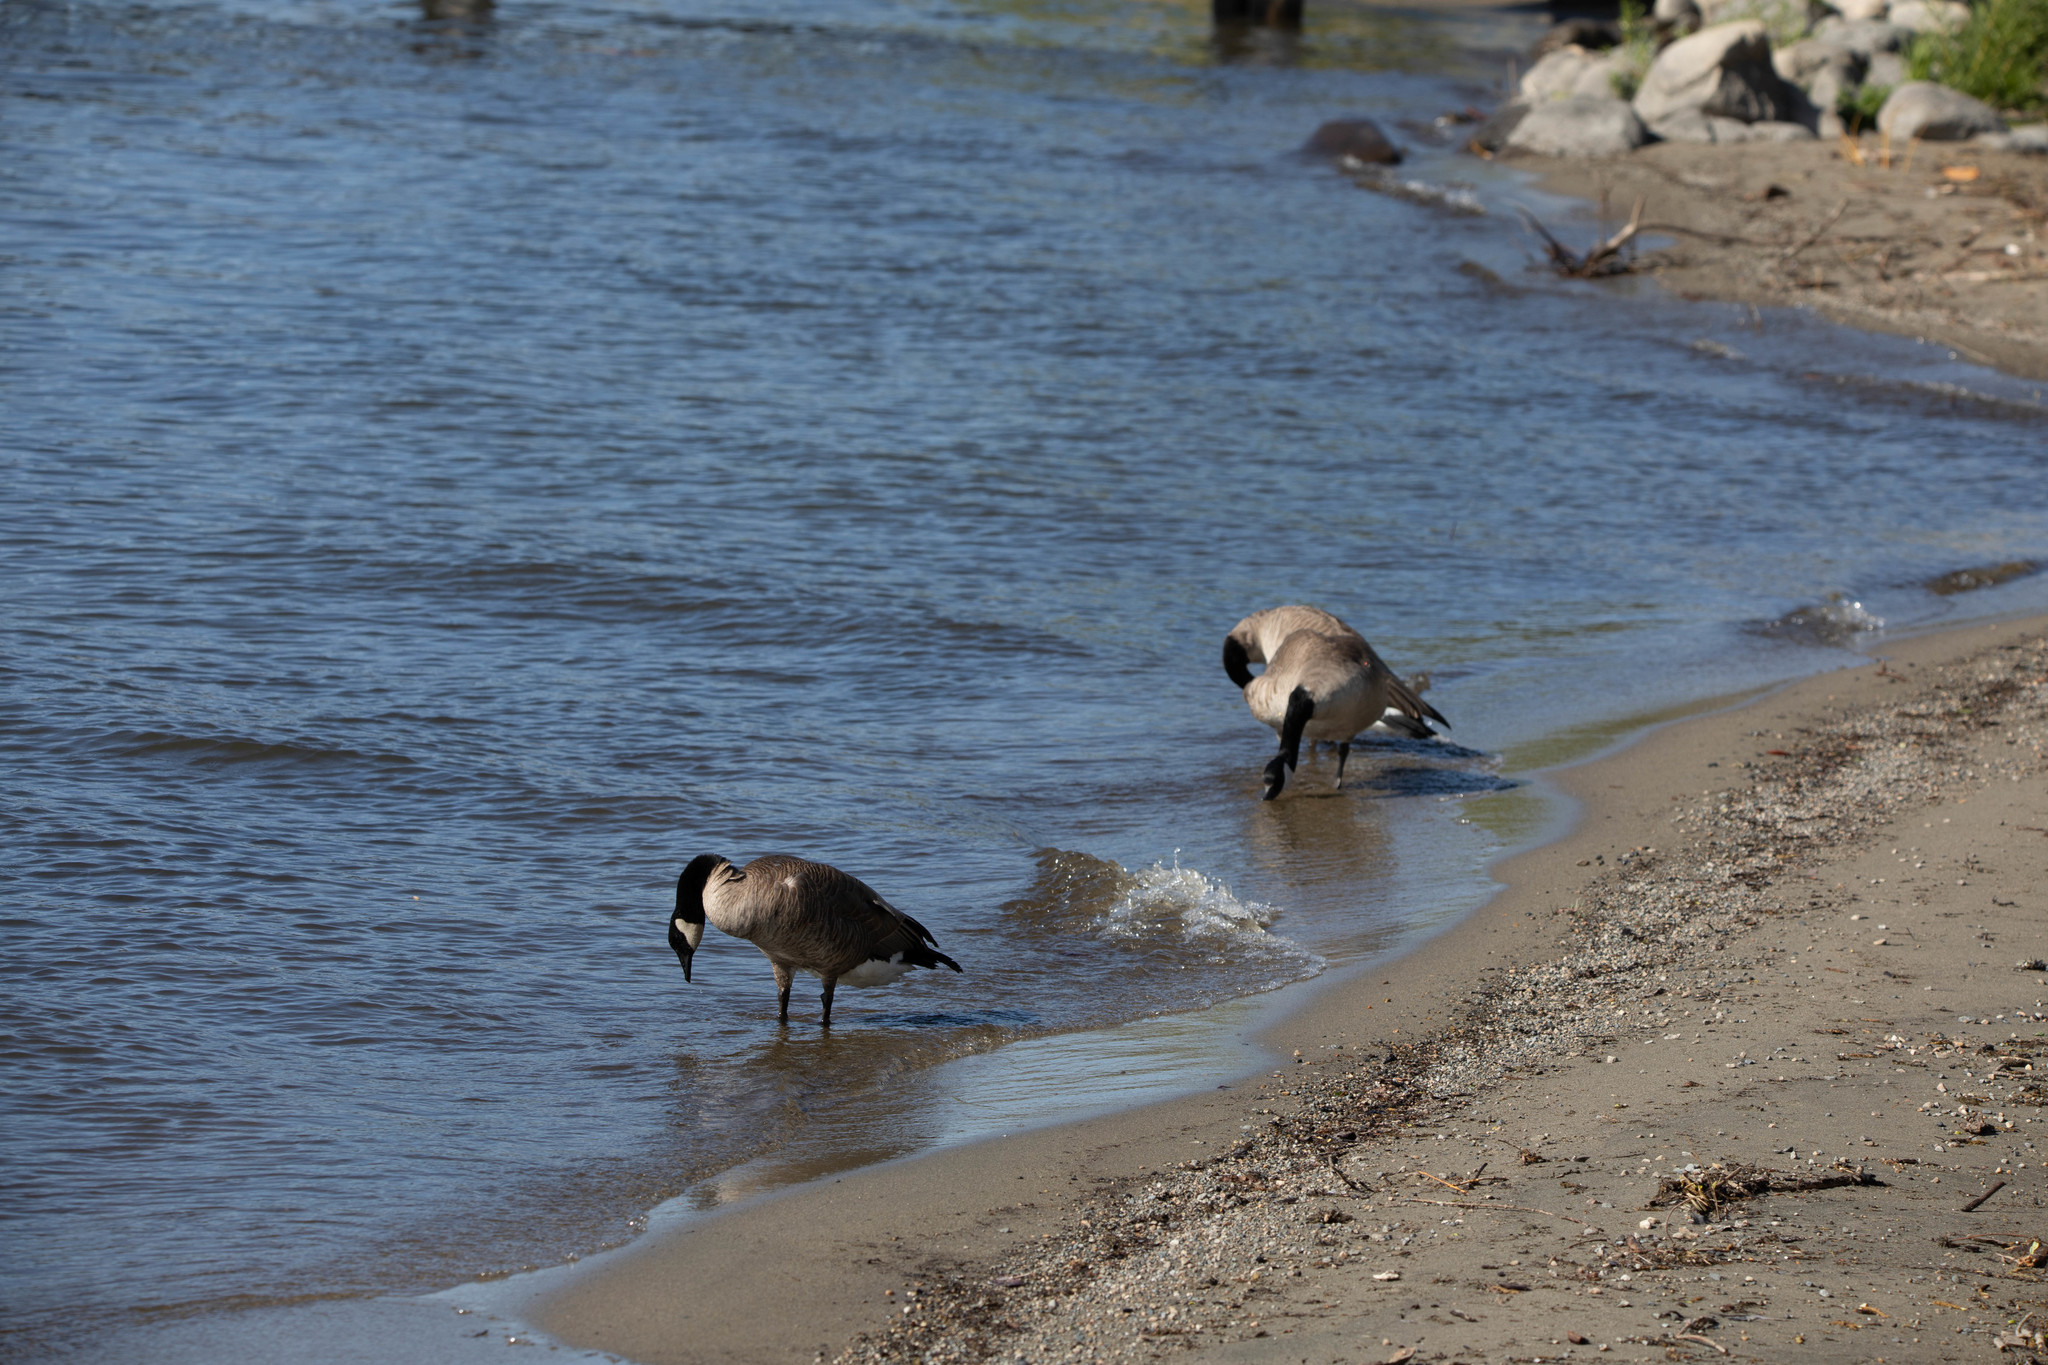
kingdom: Animalia
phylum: Chordata
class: Aves
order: Anseriformes
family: Anatidae
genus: Branta
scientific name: Branta canadensis
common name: Canada goose
